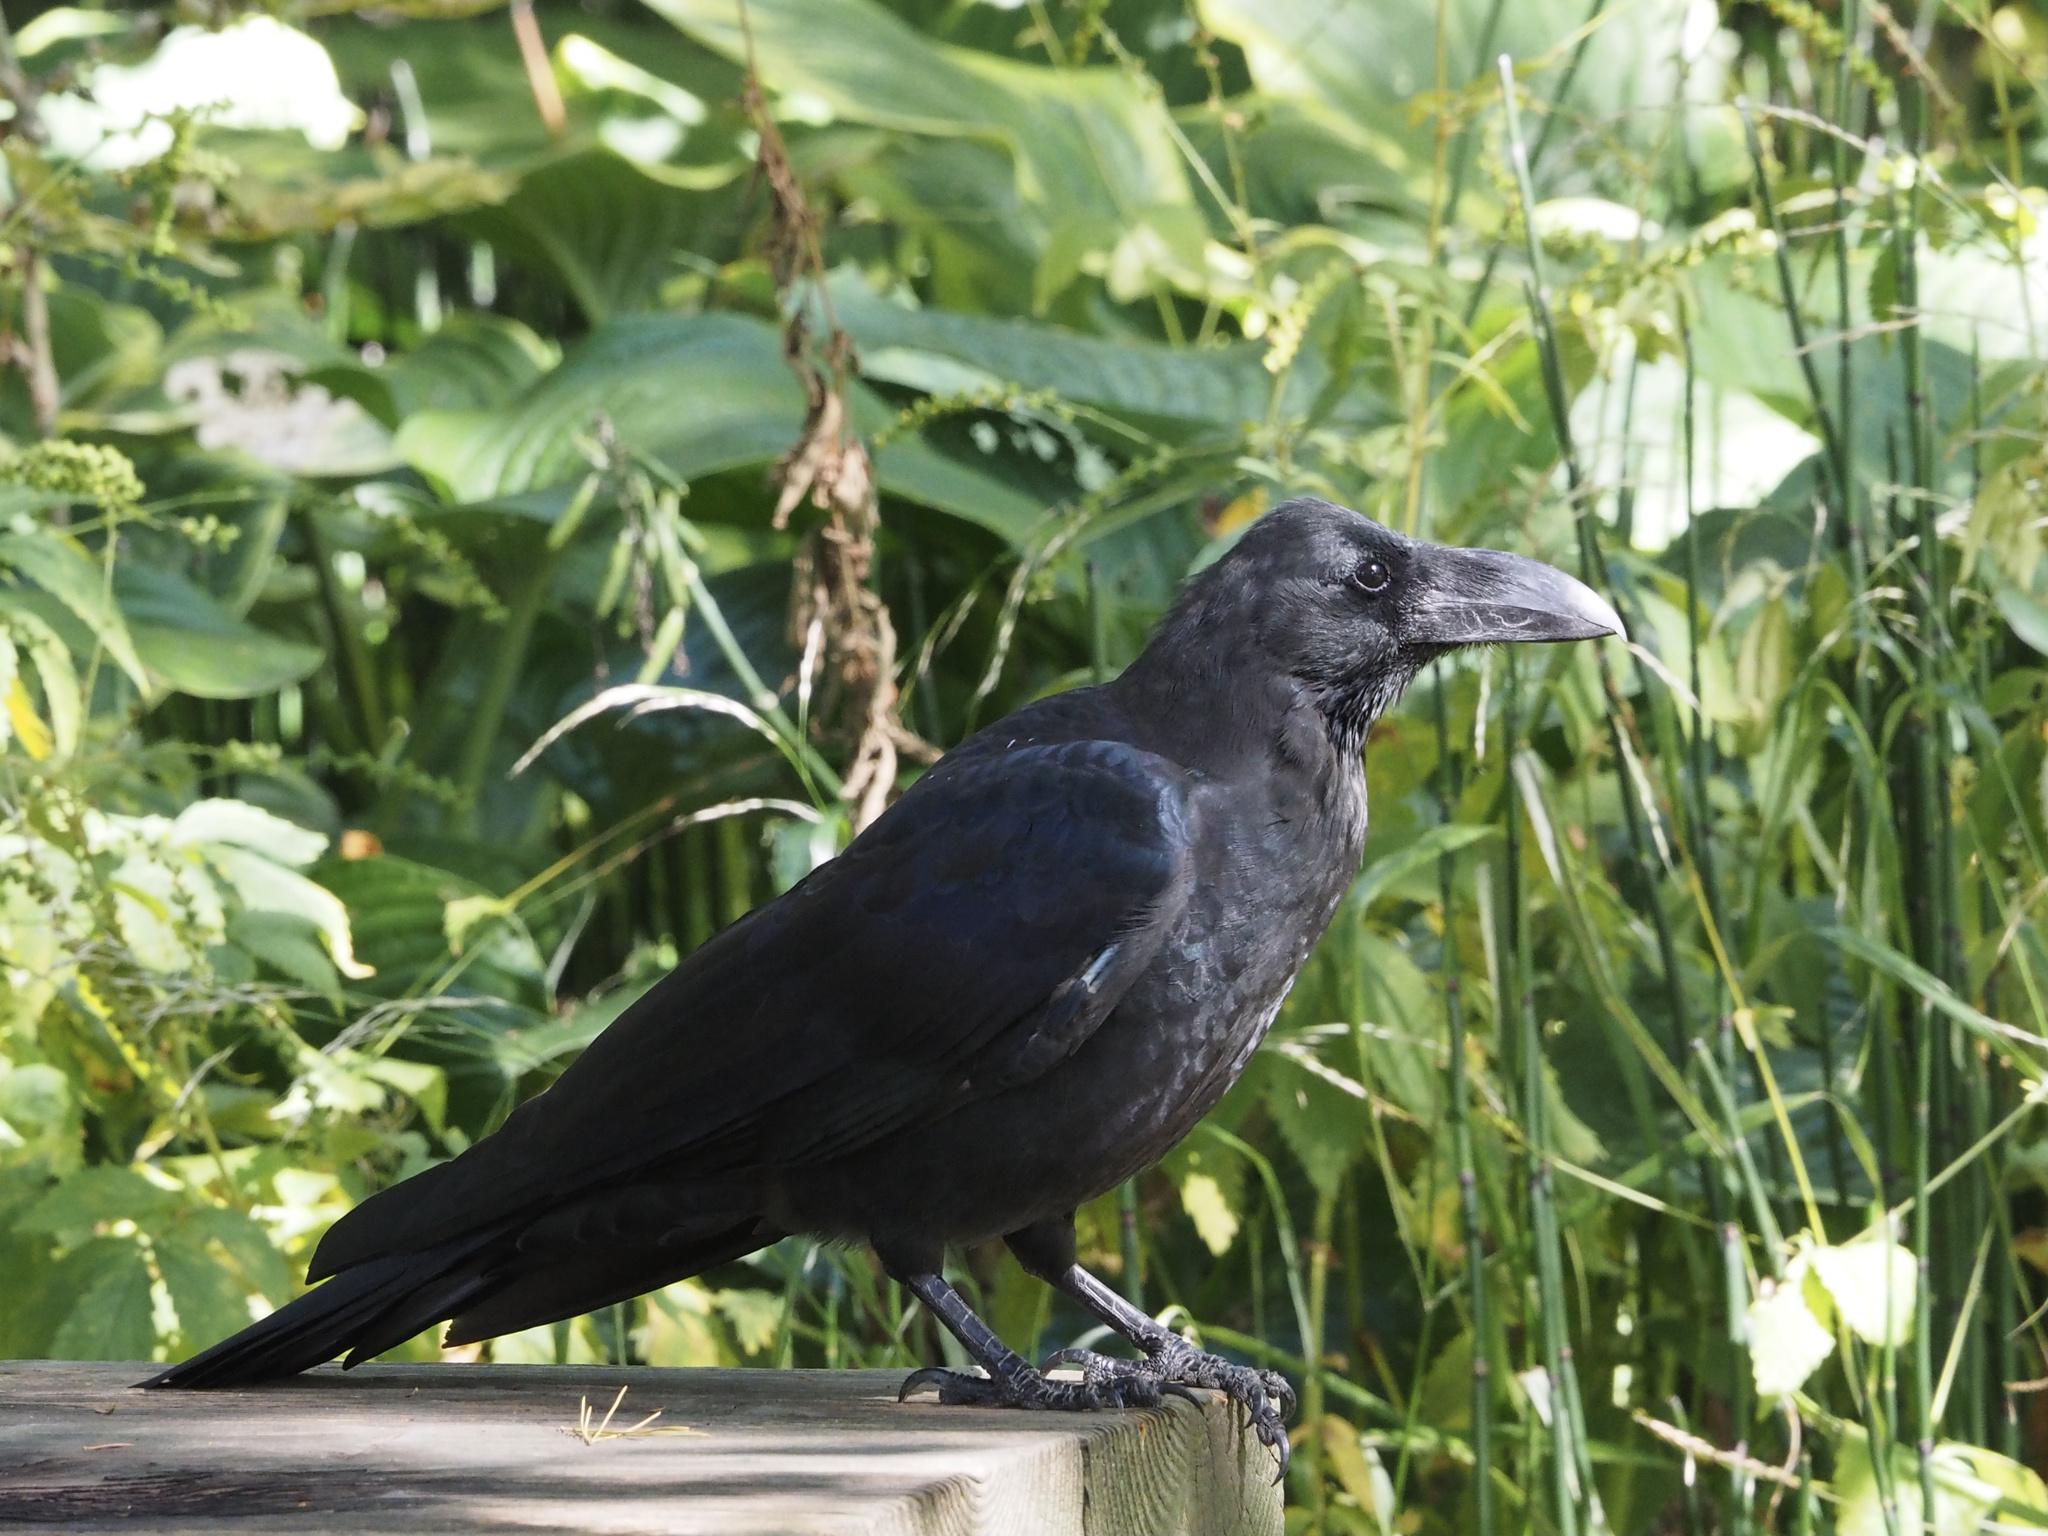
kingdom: Animalia
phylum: Chordata
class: Aves
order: Passeriformes
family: Corvidae
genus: Corvus
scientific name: Corvus macrorhynchos
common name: Large-billed crow
